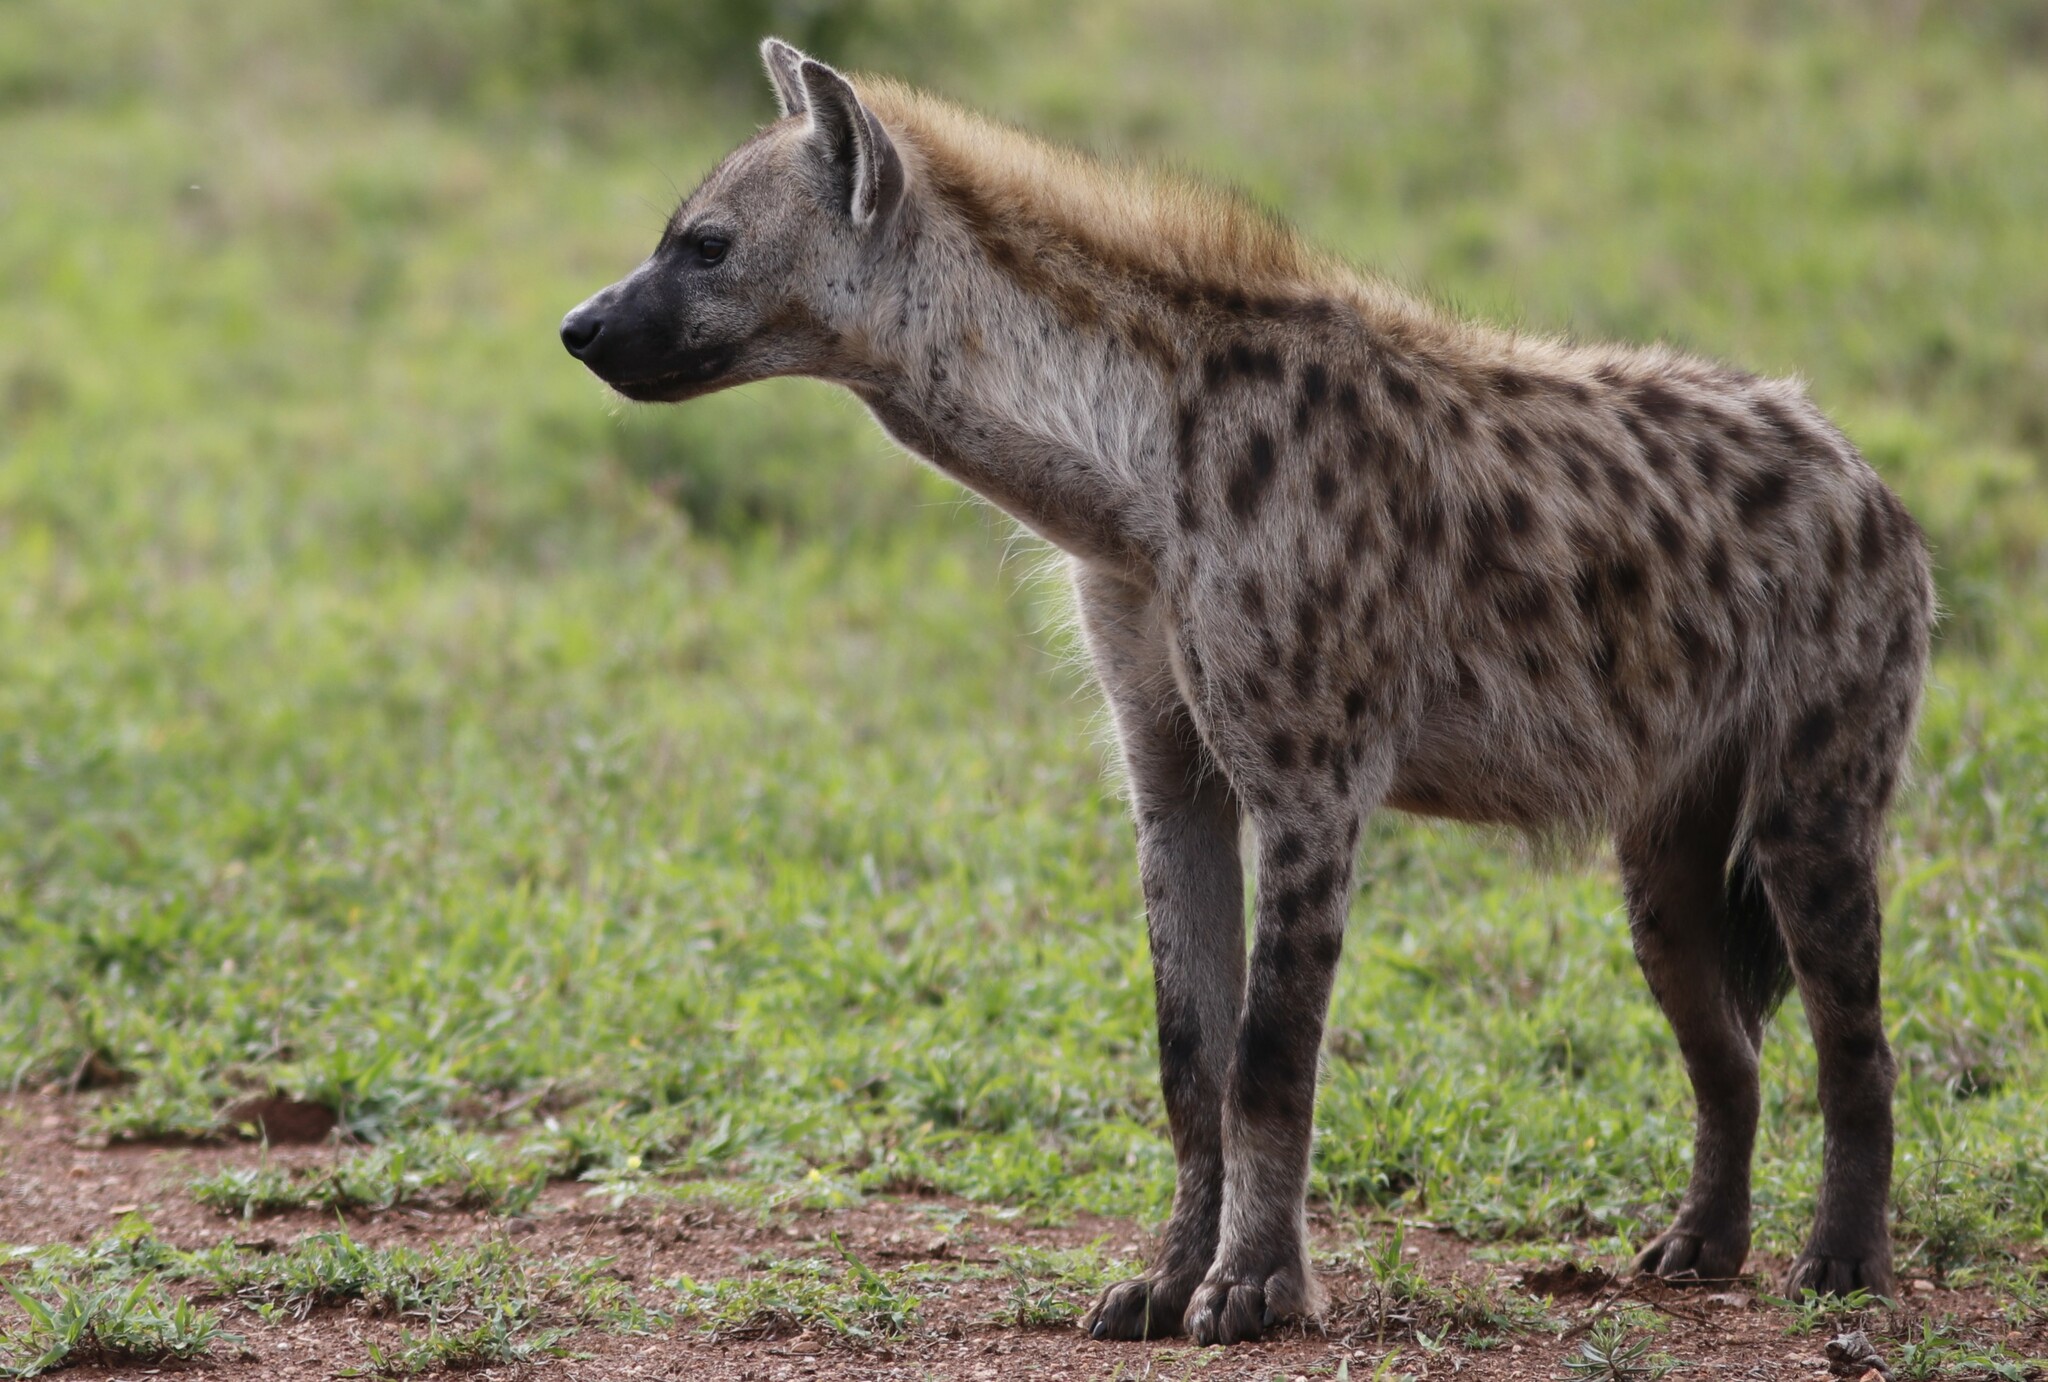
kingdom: Animalia
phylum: Chordata
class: Mammalia
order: Carnivora
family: Hyaenidae
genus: Crocuta
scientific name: Crocuta crocuta
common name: Spotted hyaena
